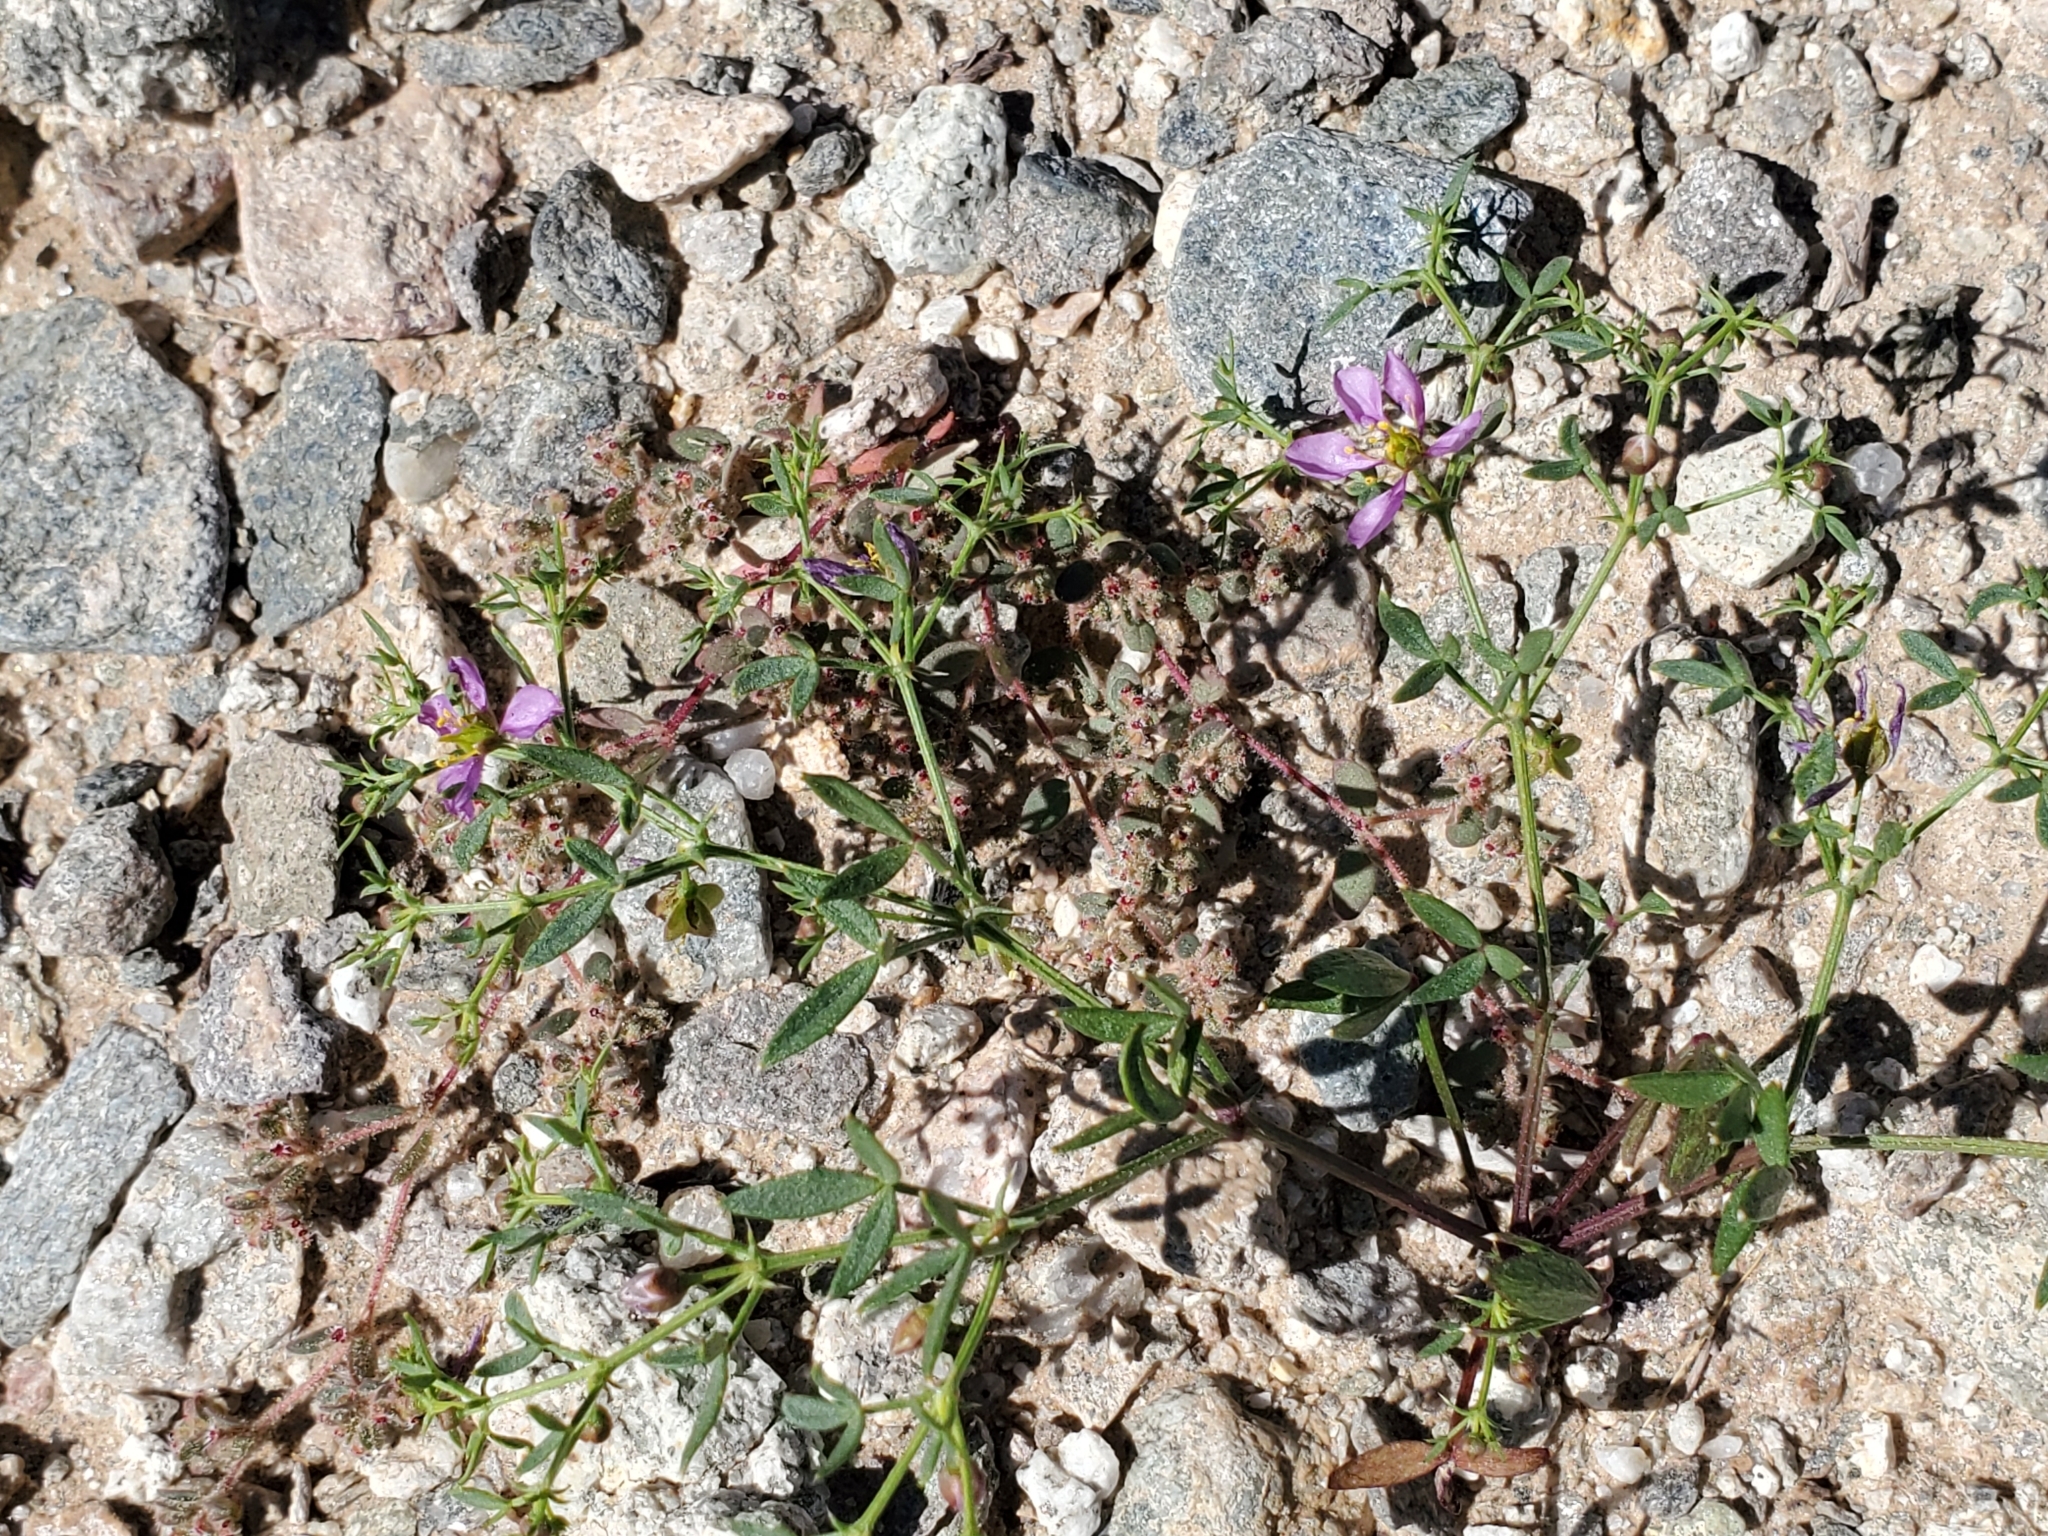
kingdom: Plantae
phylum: Tracheophyta
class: Magnoliopsida
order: Zygophyllales
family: Zygophyllaceae
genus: Fagonia
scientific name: Fagonia laevis
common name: California fagonbush
